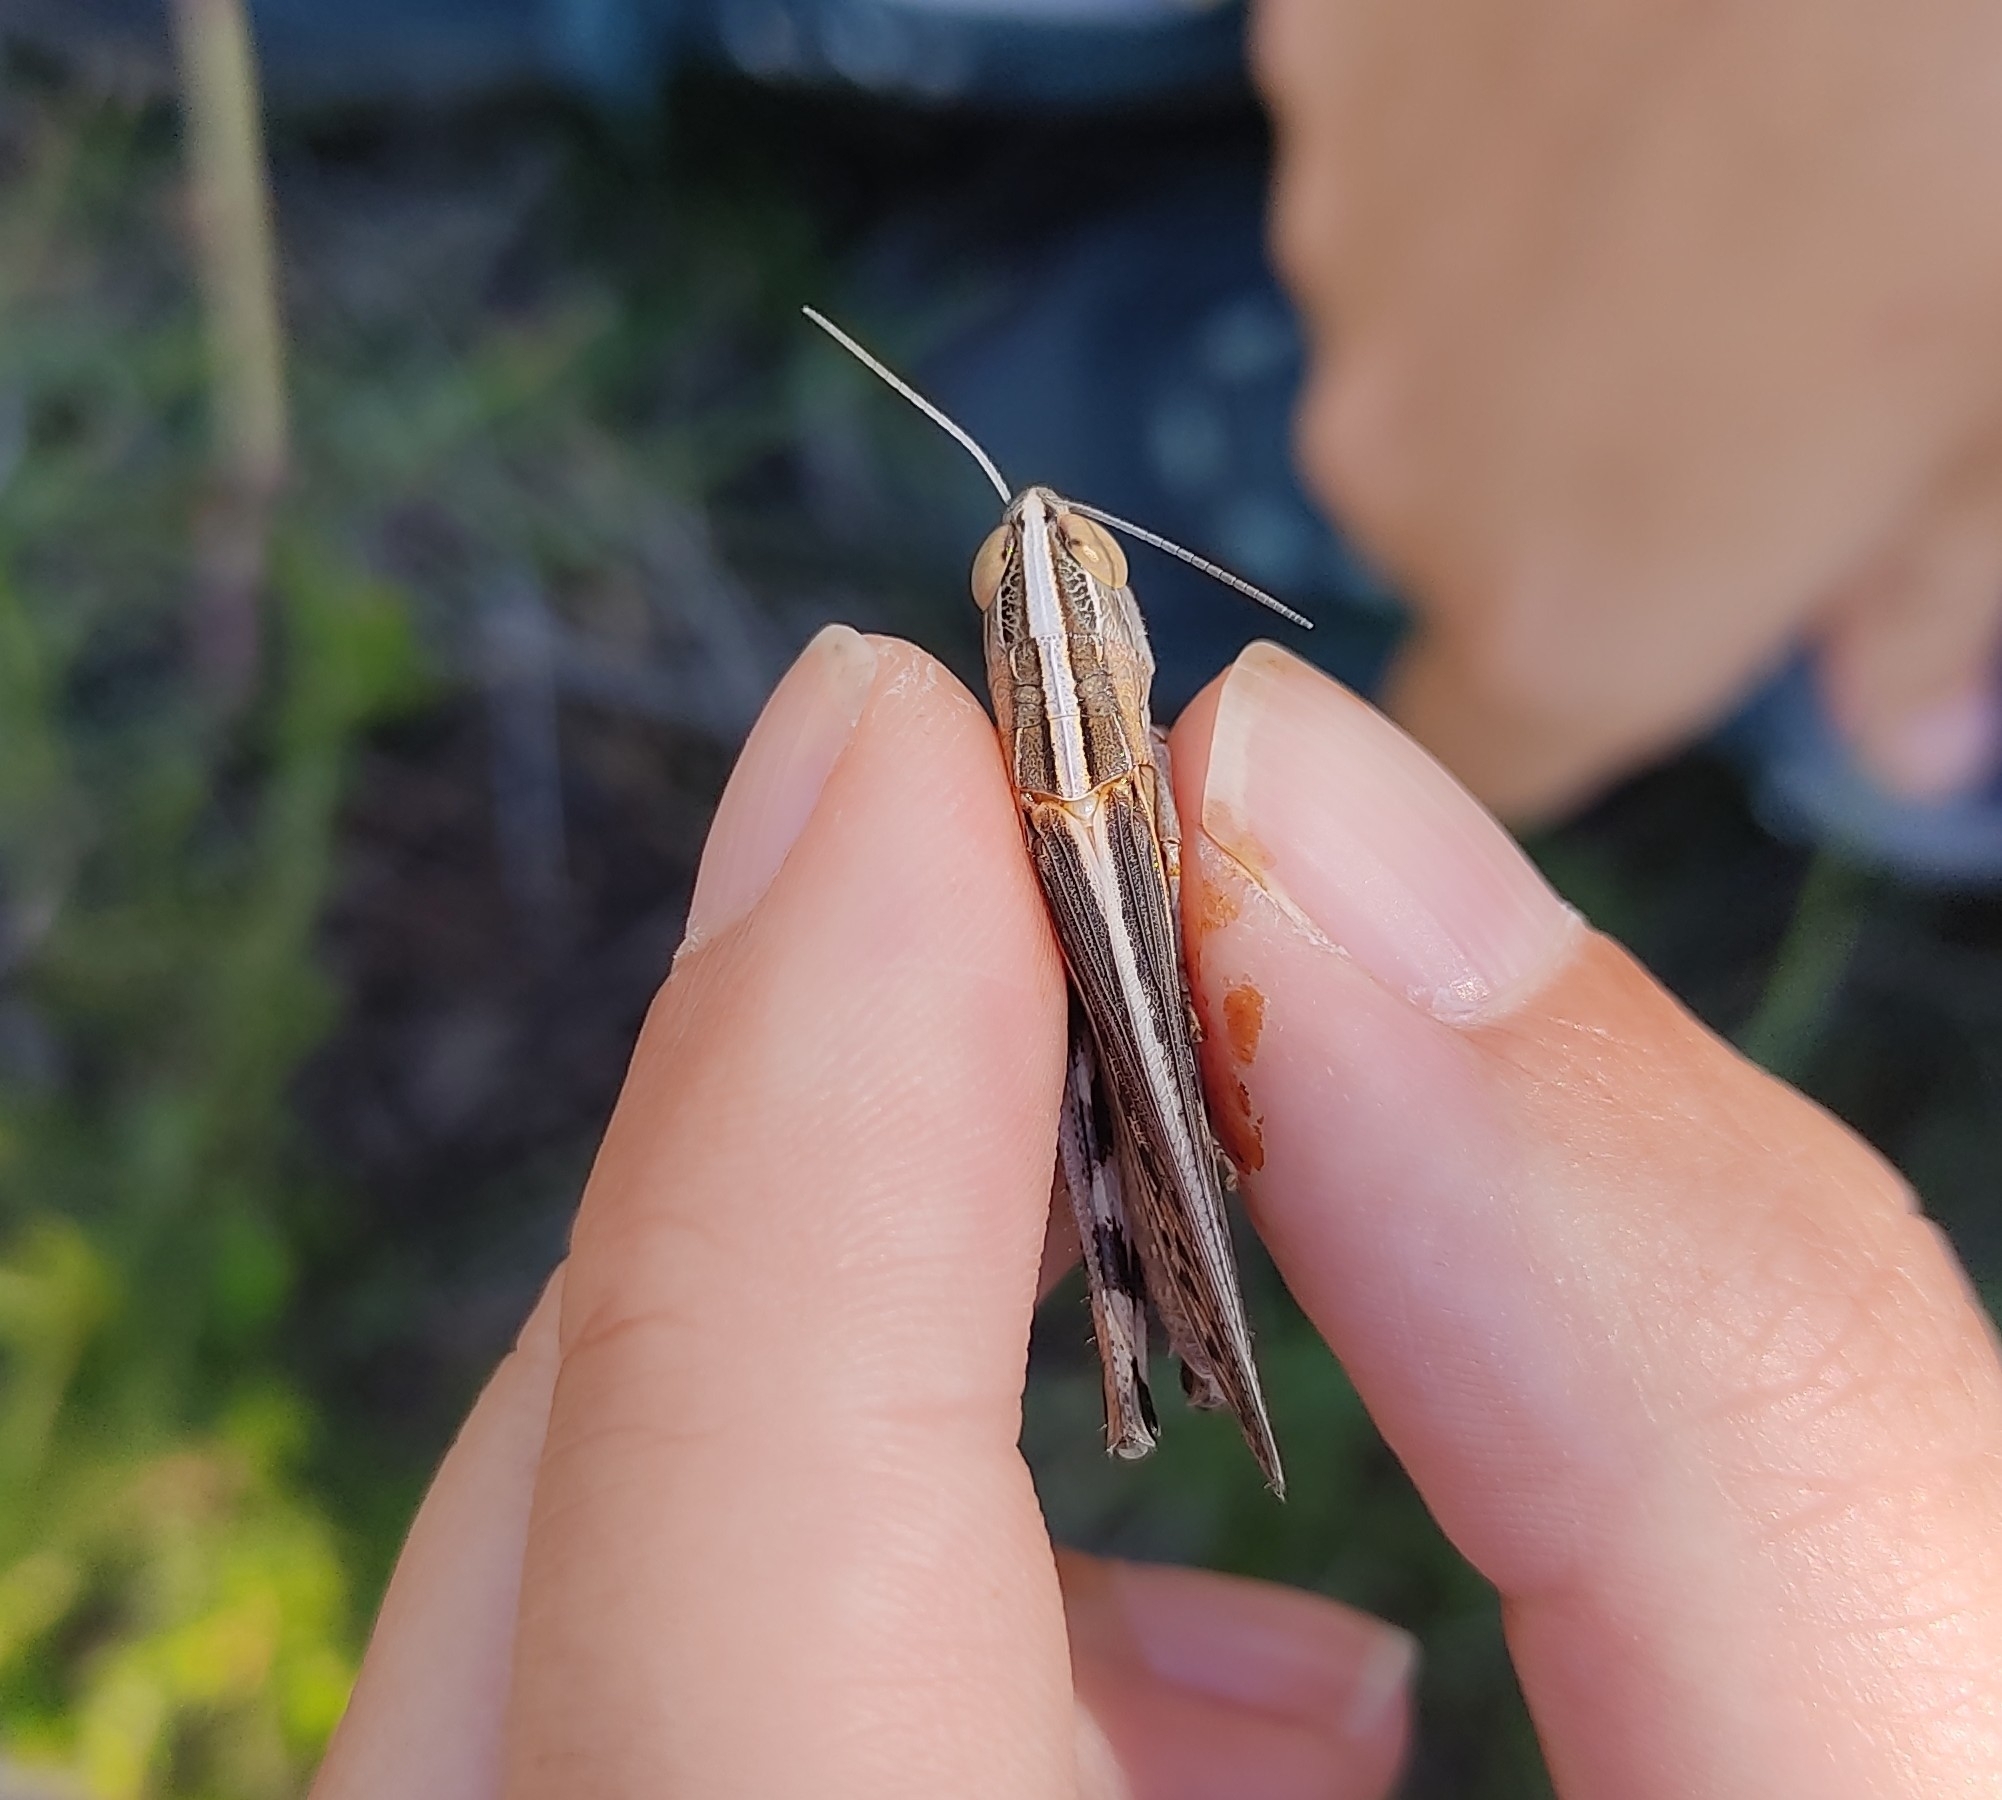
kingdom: Animalia
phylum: Arthropoda
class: Insecta
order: Orthoptera
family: Acrididae
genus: Ramburiella
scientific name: Ramburiella hispanica
